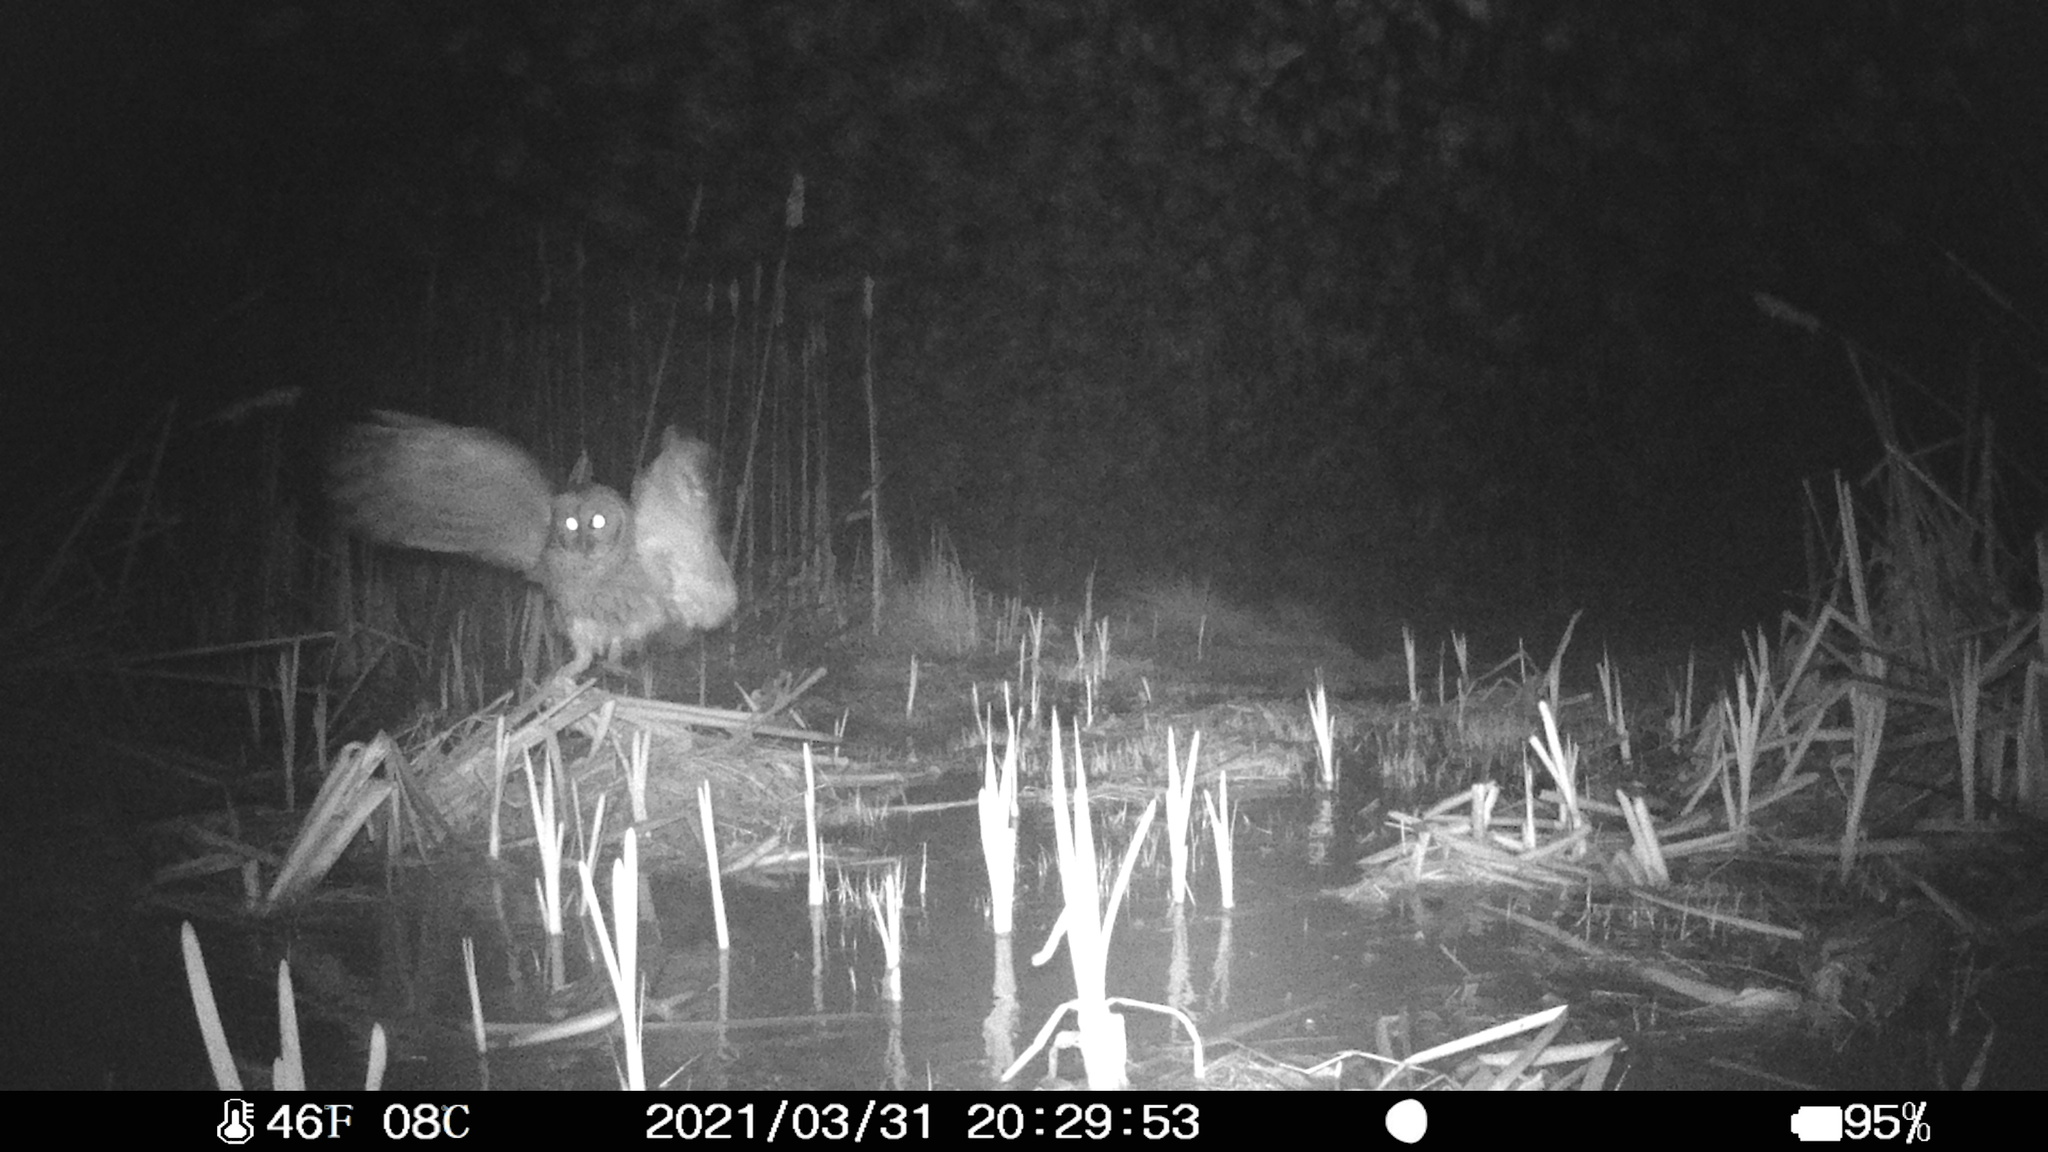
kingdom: Animalia
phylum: Chordata
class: Aves
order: Strigiformes
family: Strigidae
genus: Strix
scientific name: Strix varia
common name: Barred owl
